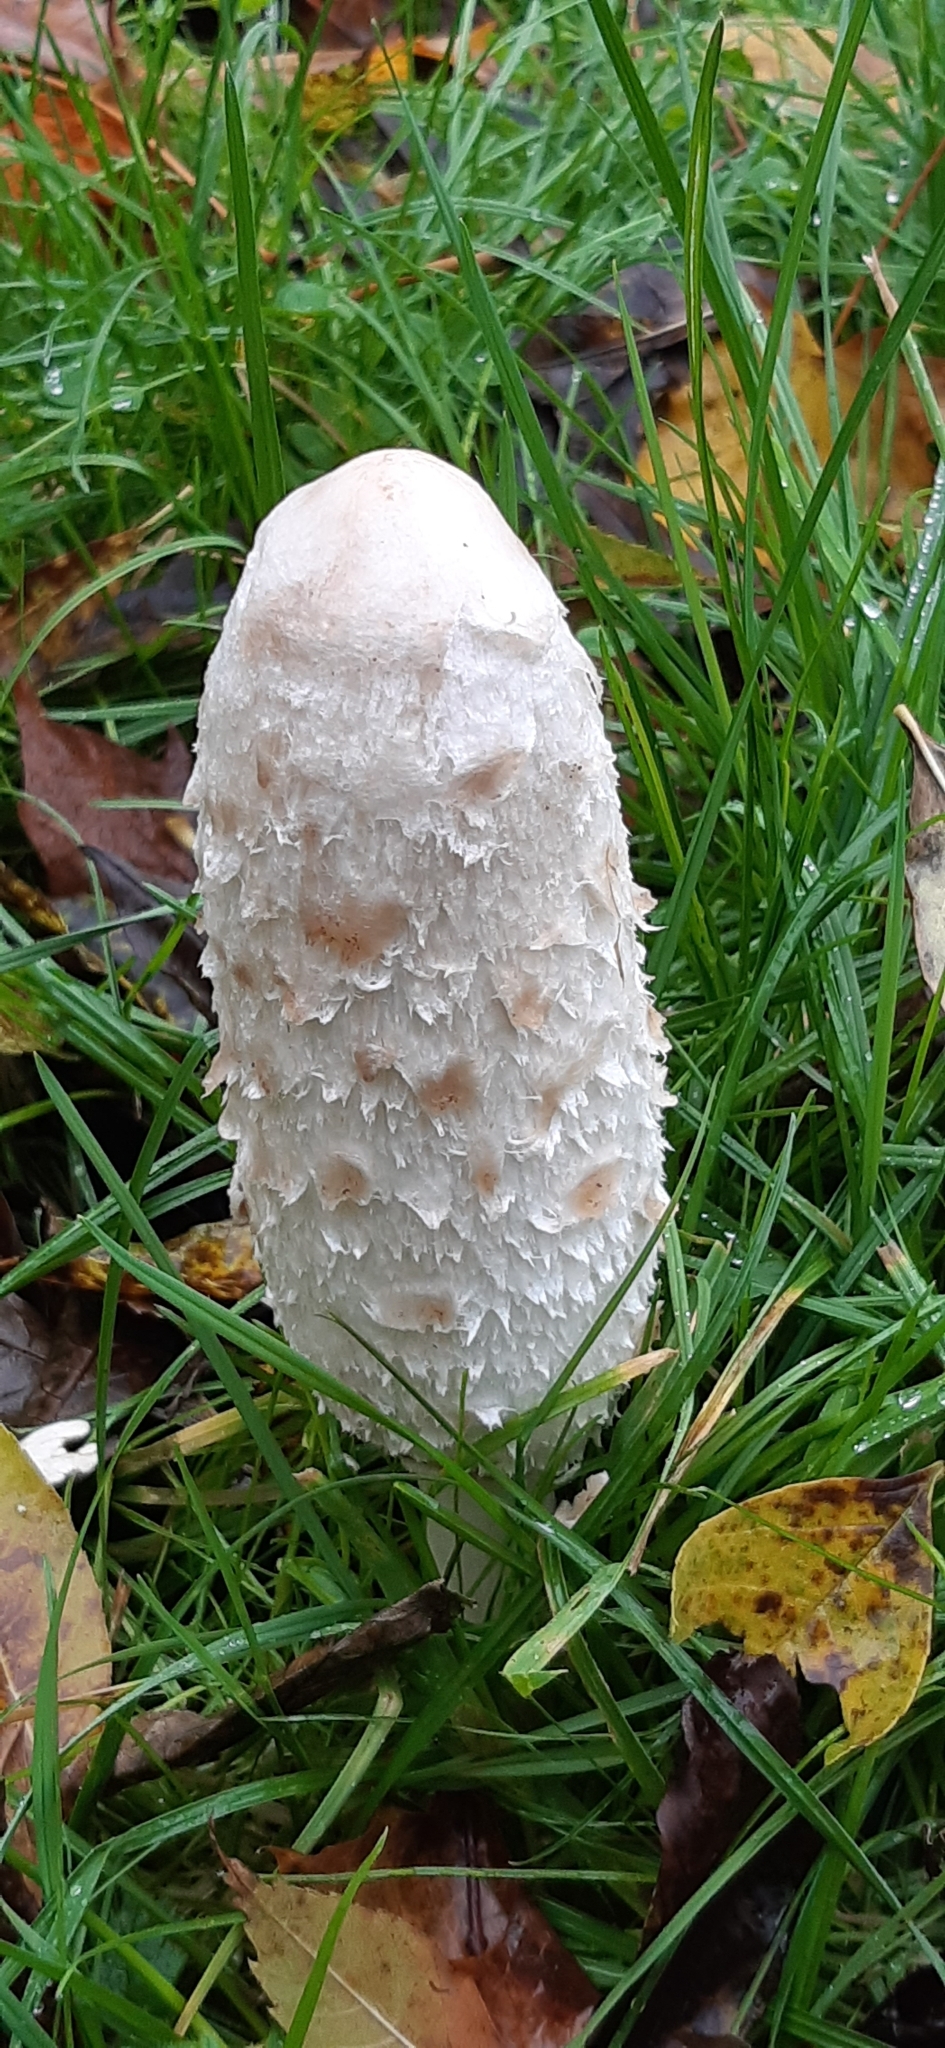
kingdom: Fungi
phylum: Basidiomycota
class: Agaricomycetes
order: Agaricales
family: Agaricaceae
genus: Coprinus
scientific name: Coprinus comatus
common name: Lawyer's wig
